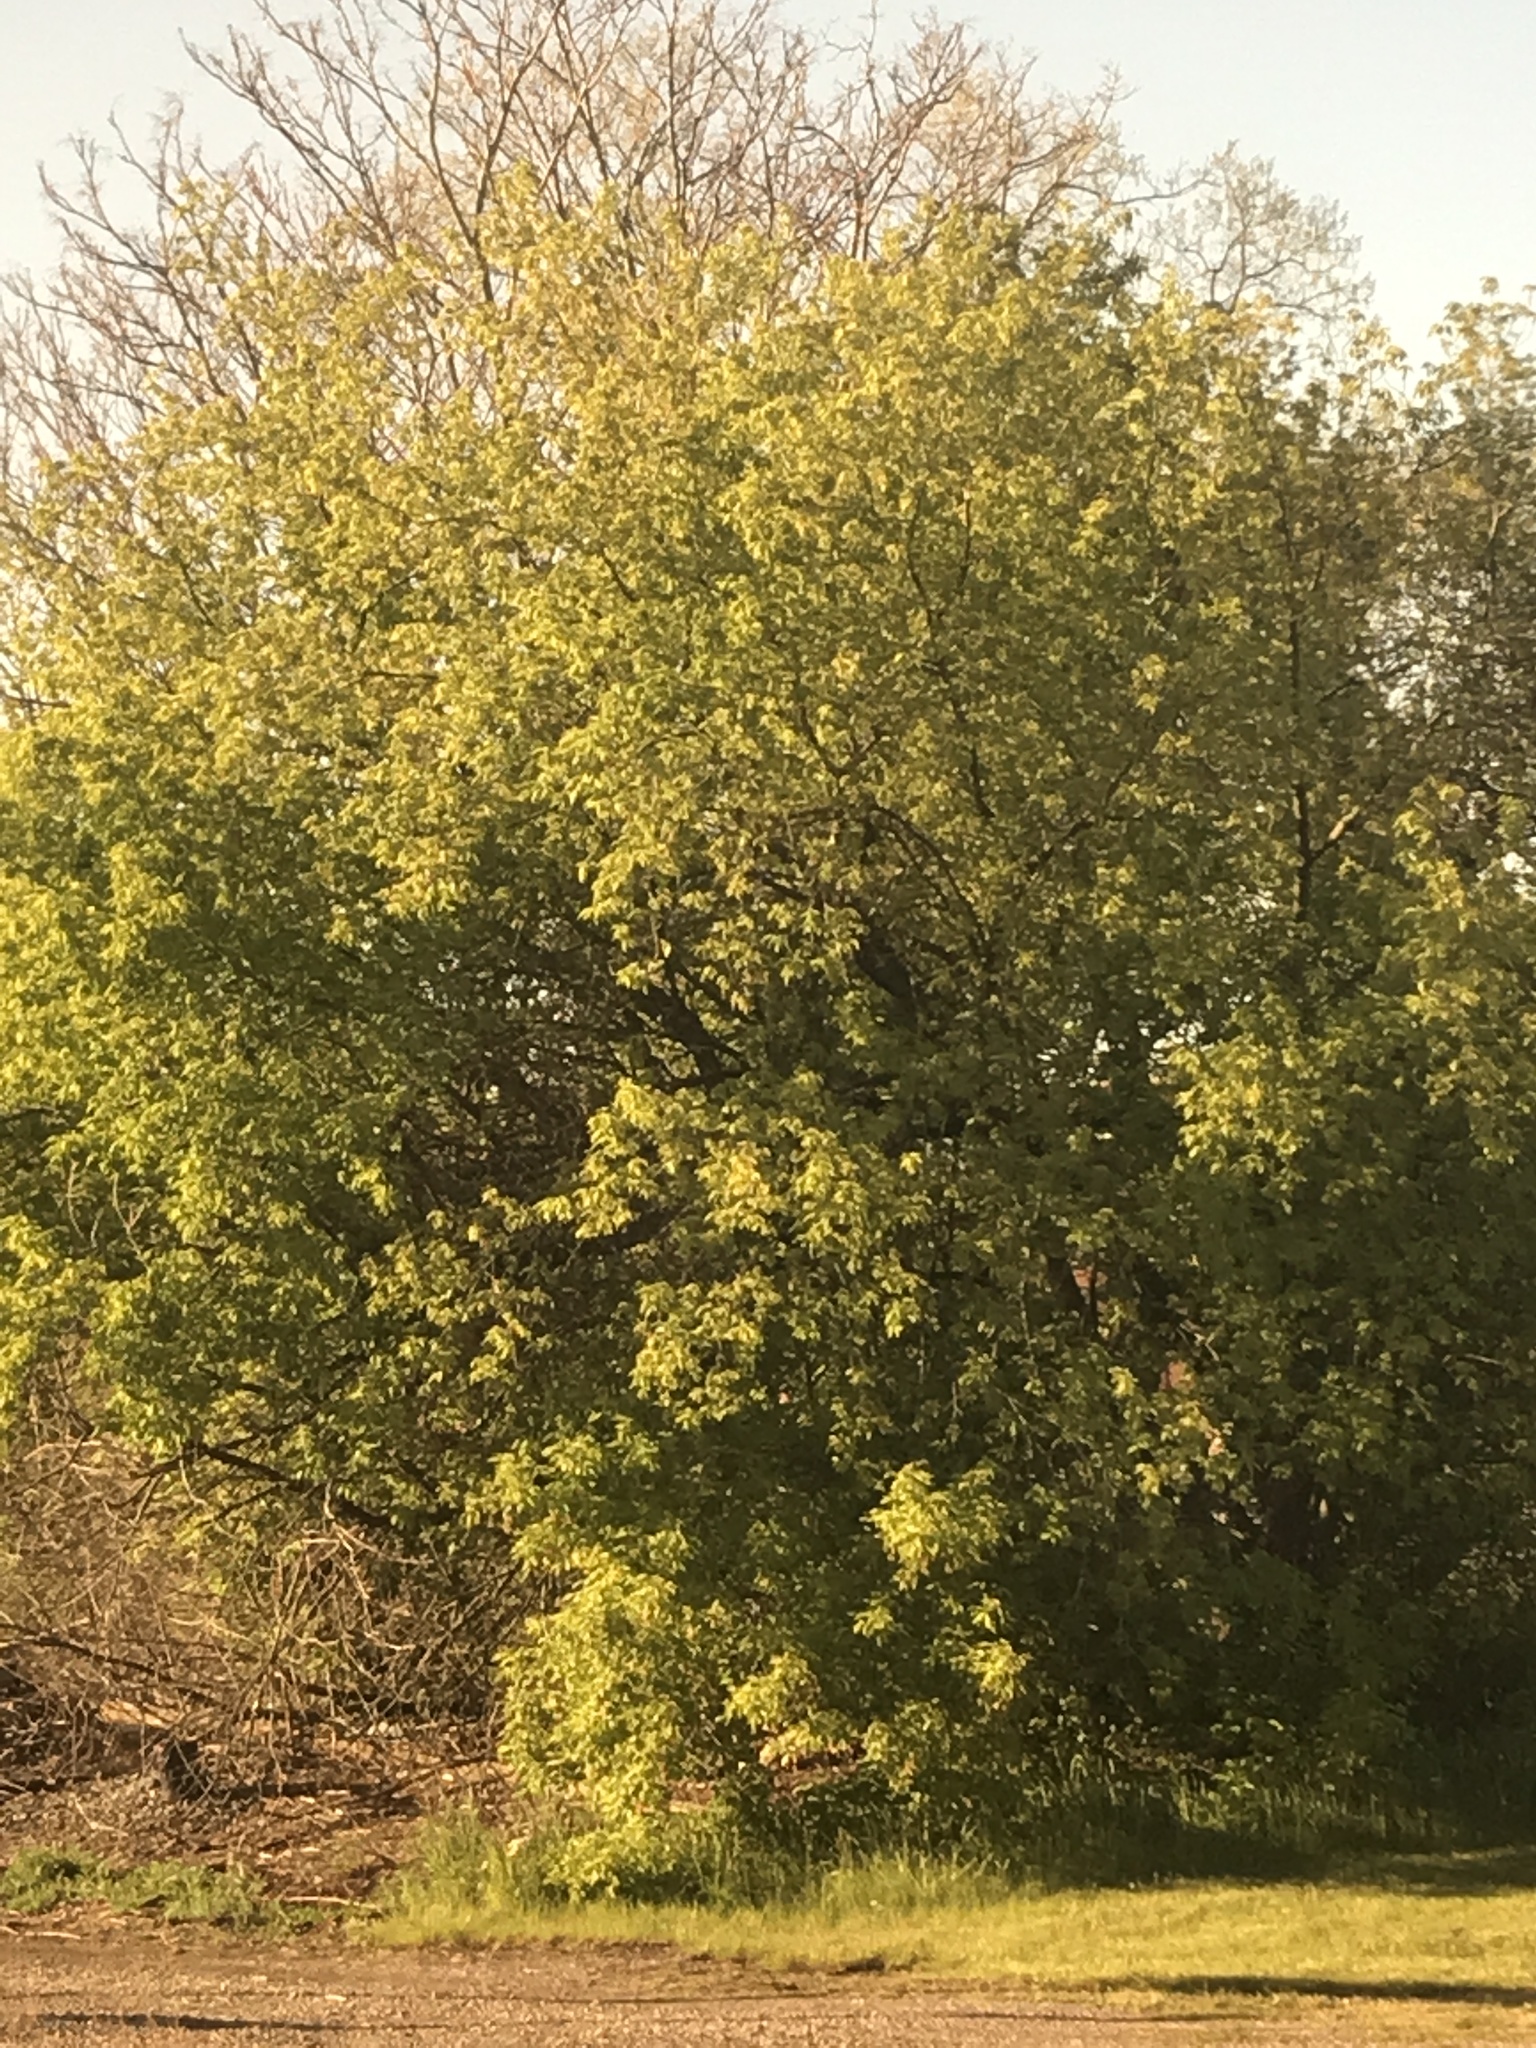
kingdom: Plantae
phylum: Tracheophyta
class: Magnoliopsida
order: Sapindales
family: Sapindaceae
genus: Acer
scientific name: Acer negundo
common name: Ashleaf maple
